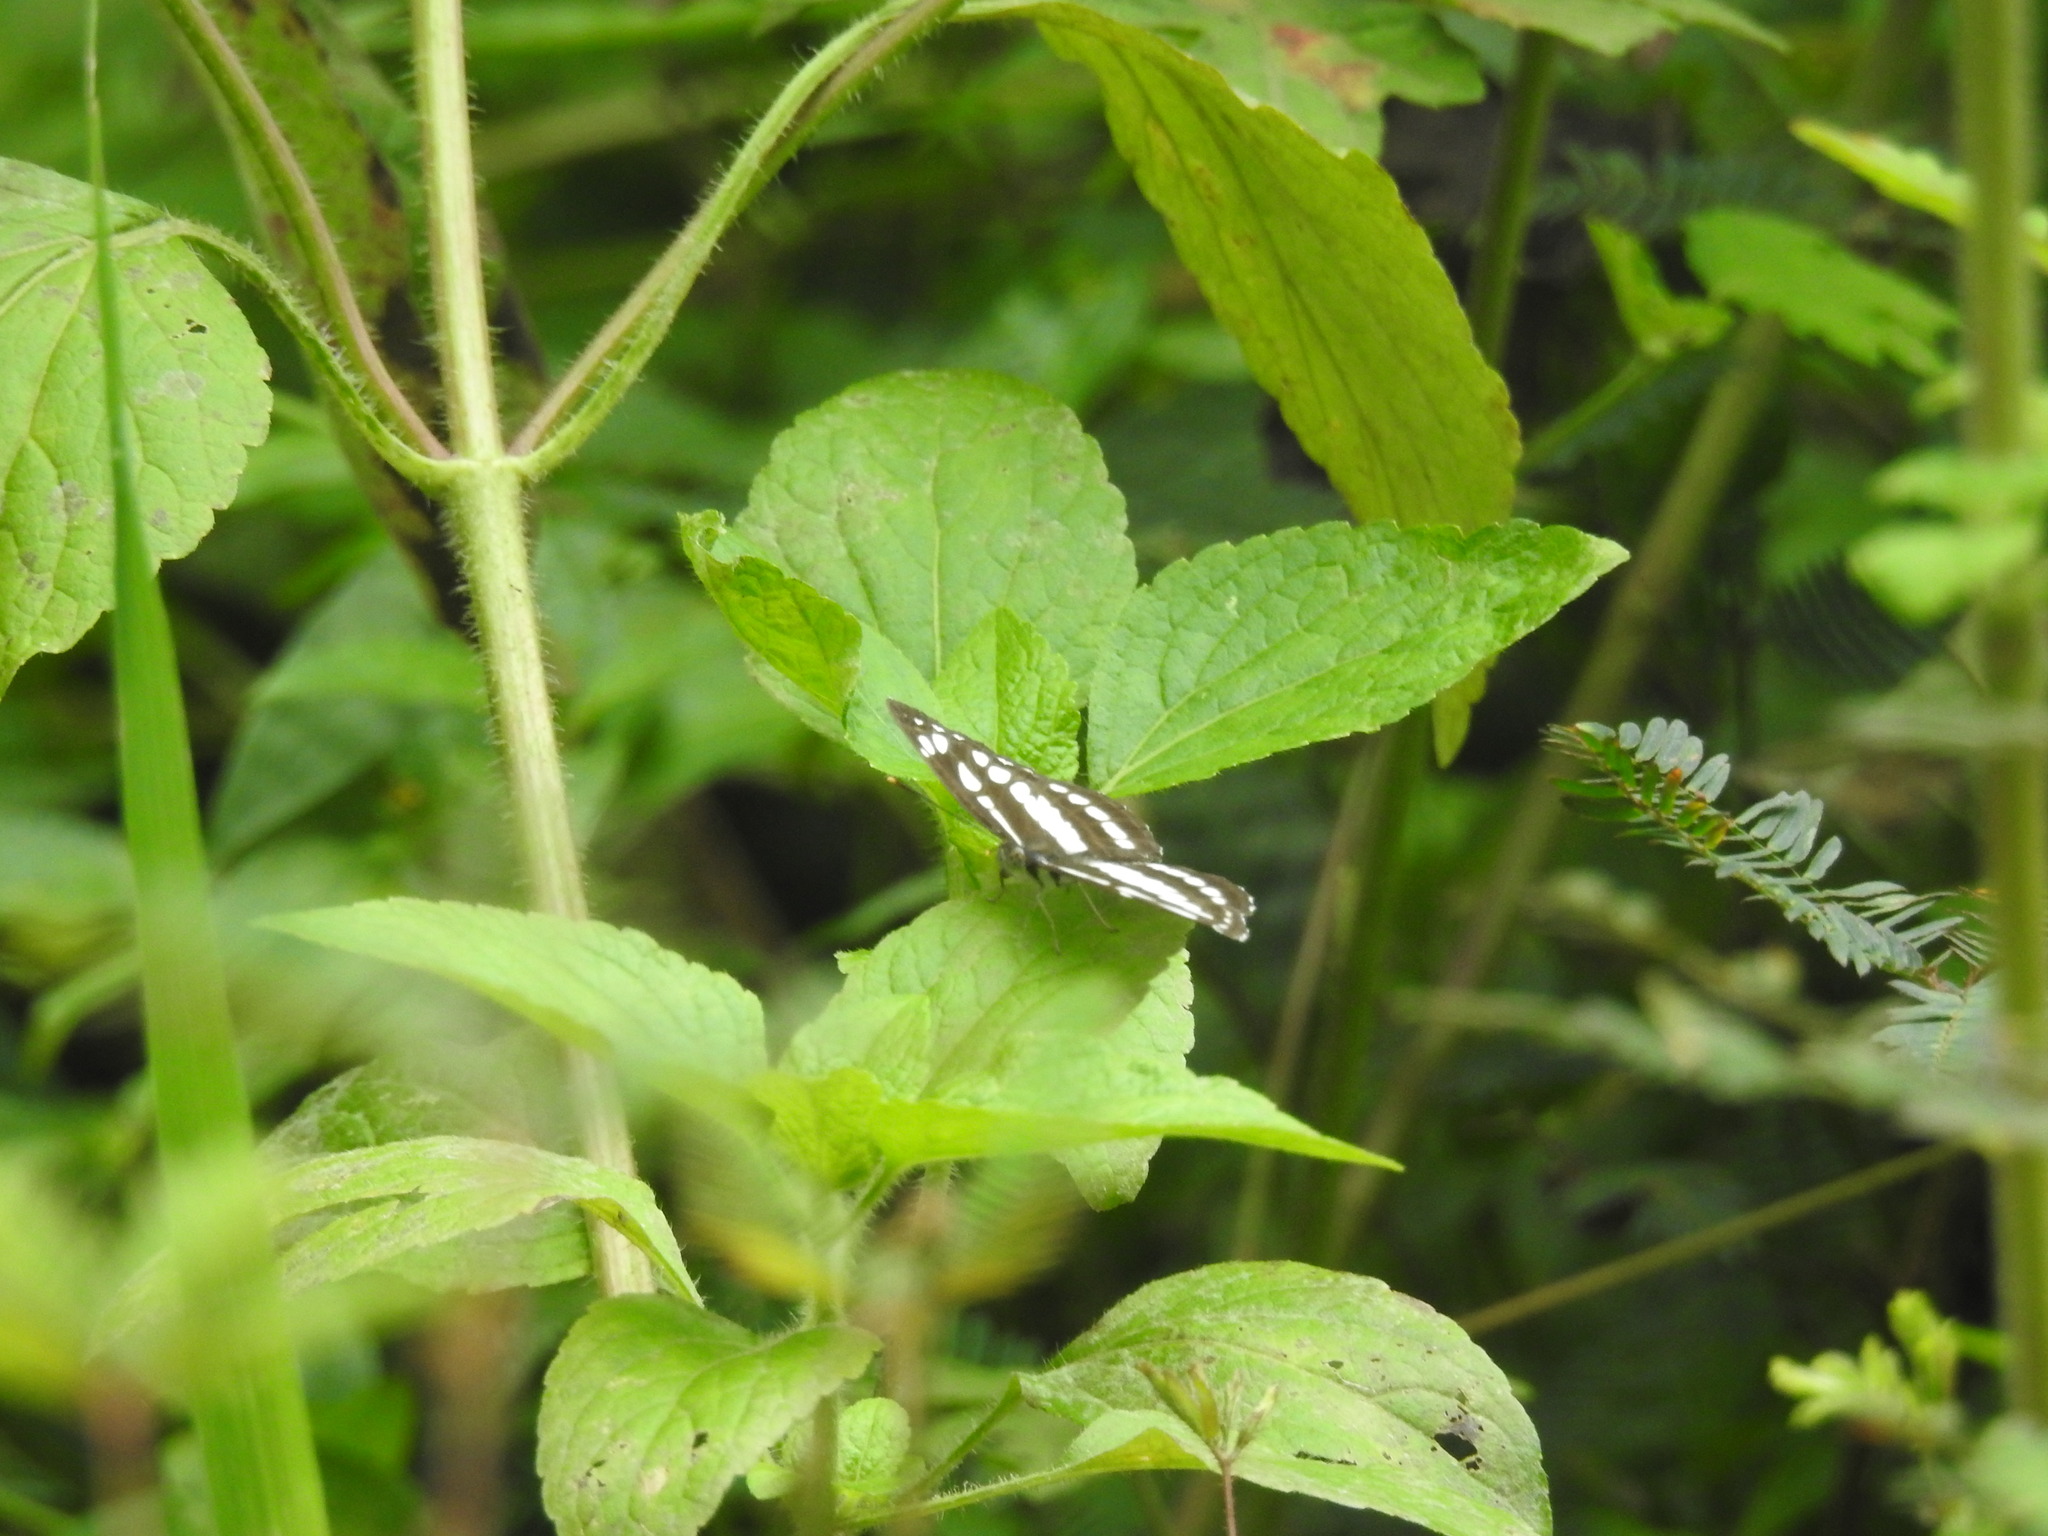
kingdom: Animalia
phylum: Arthropoda
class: Insecta
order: Lepidoptera
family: Nymphalidae
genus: Neptis
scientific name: Neptis hylas
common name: Common sailer
